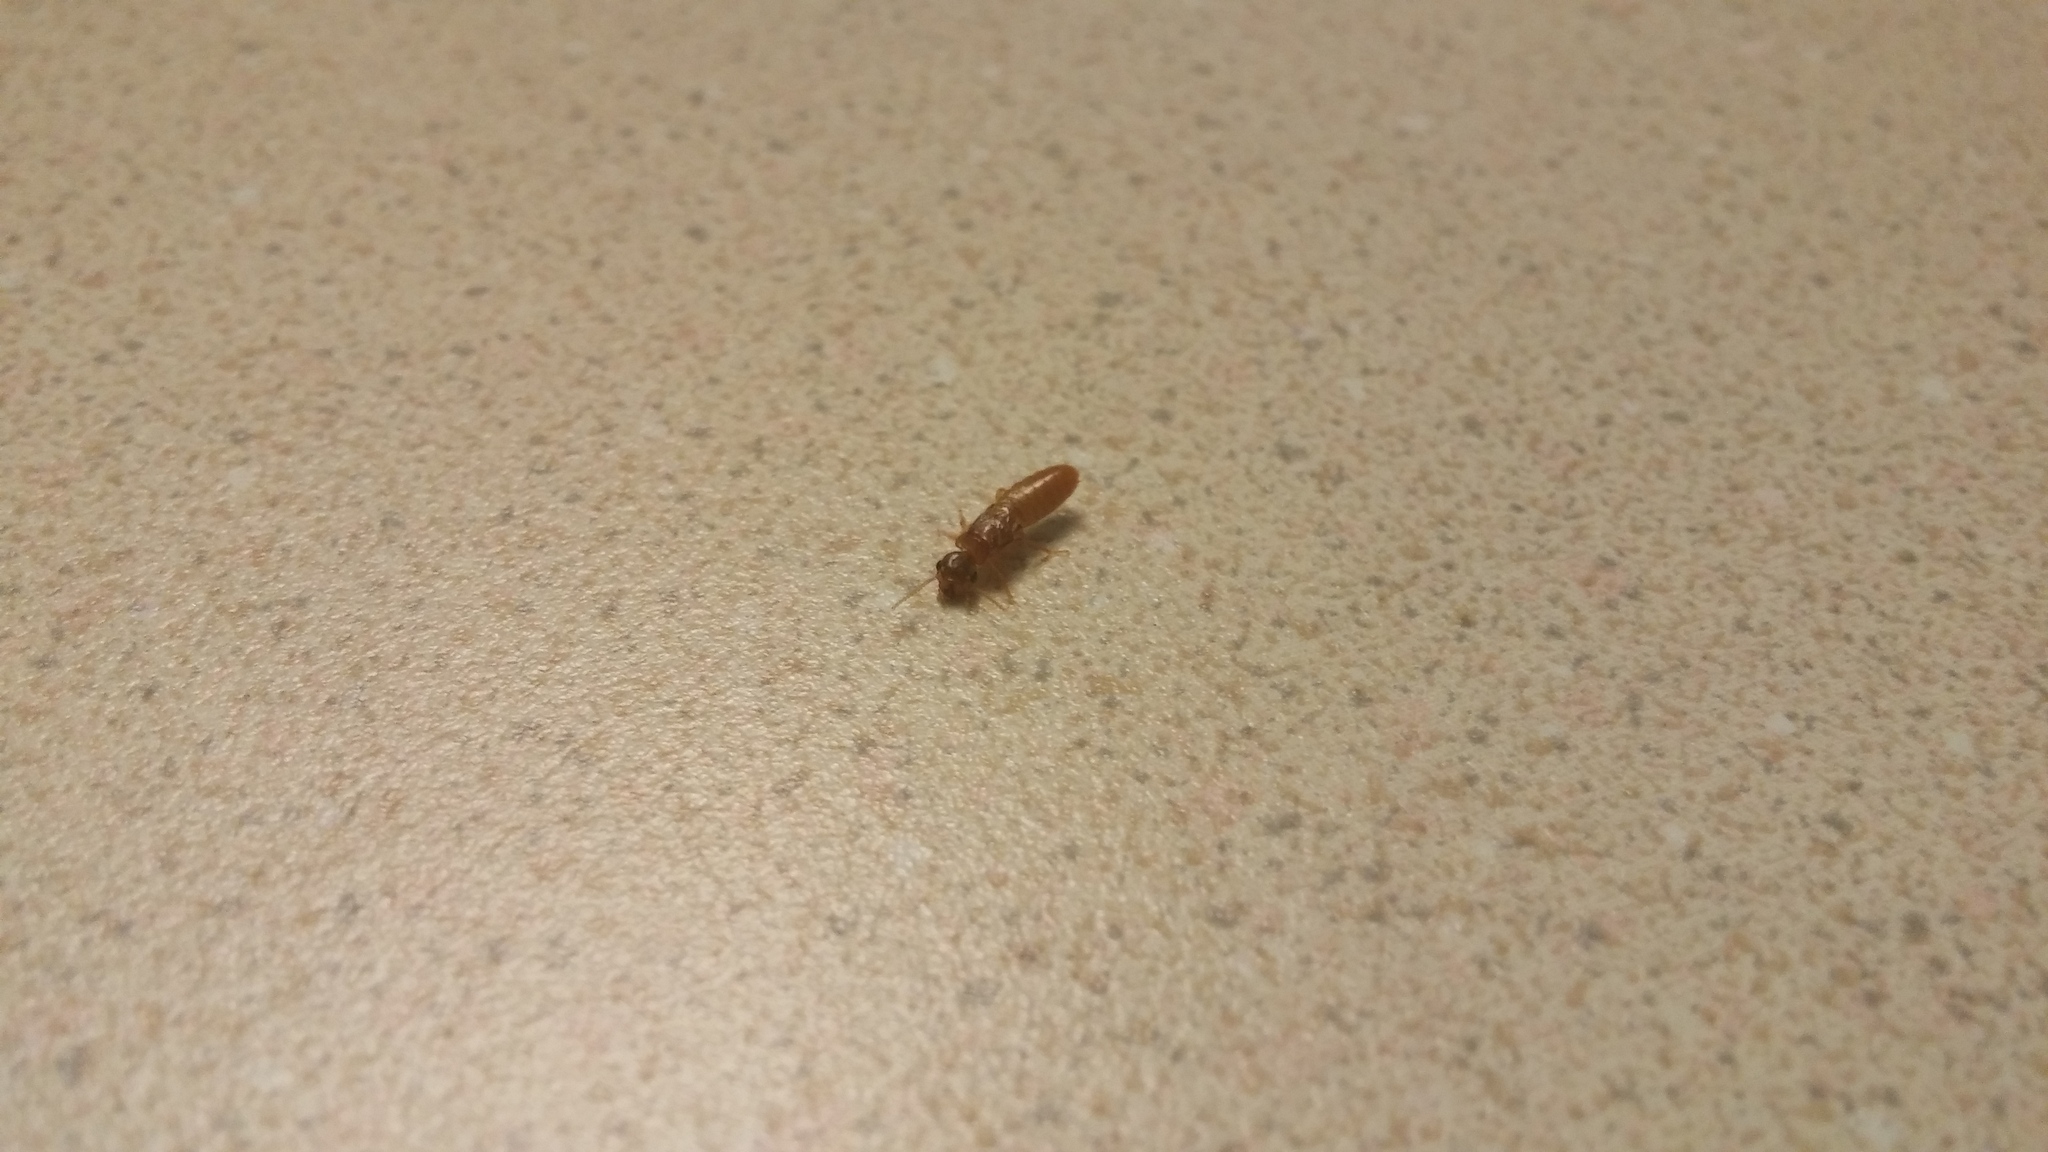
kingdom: Animalia
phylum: Arthropoda
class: Insecta
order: Blattodea
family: Rhinotermitidae
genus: Coptotermes
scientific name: Coptotermes formosanus
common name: Formosan termite
